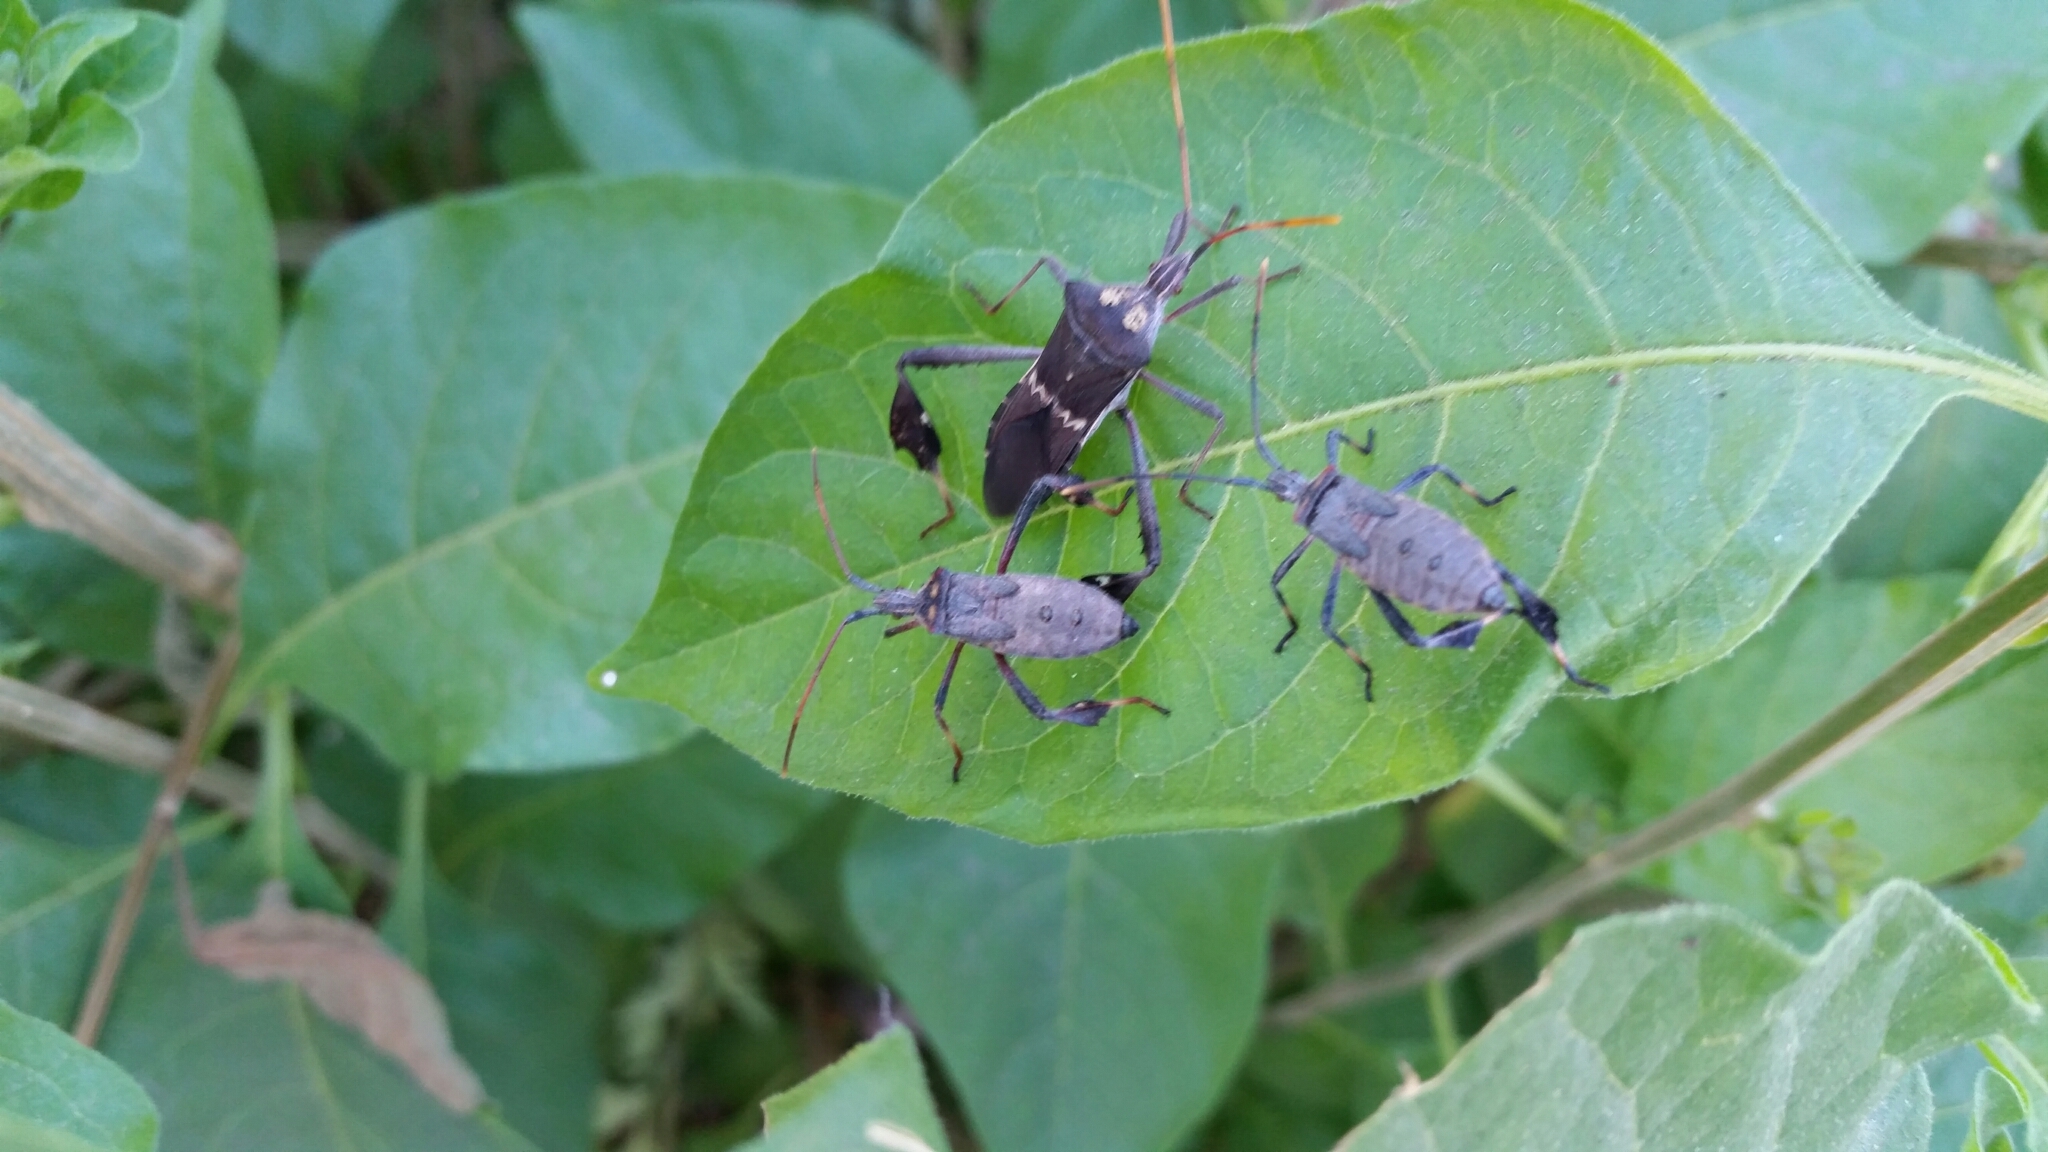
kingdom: Animalia
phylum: Arthropoda
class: Insecta
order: Hemiptera
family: Coreidae
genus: Leptoglossus
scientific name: Leptoglossus zonatus
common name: Large-legged bug
